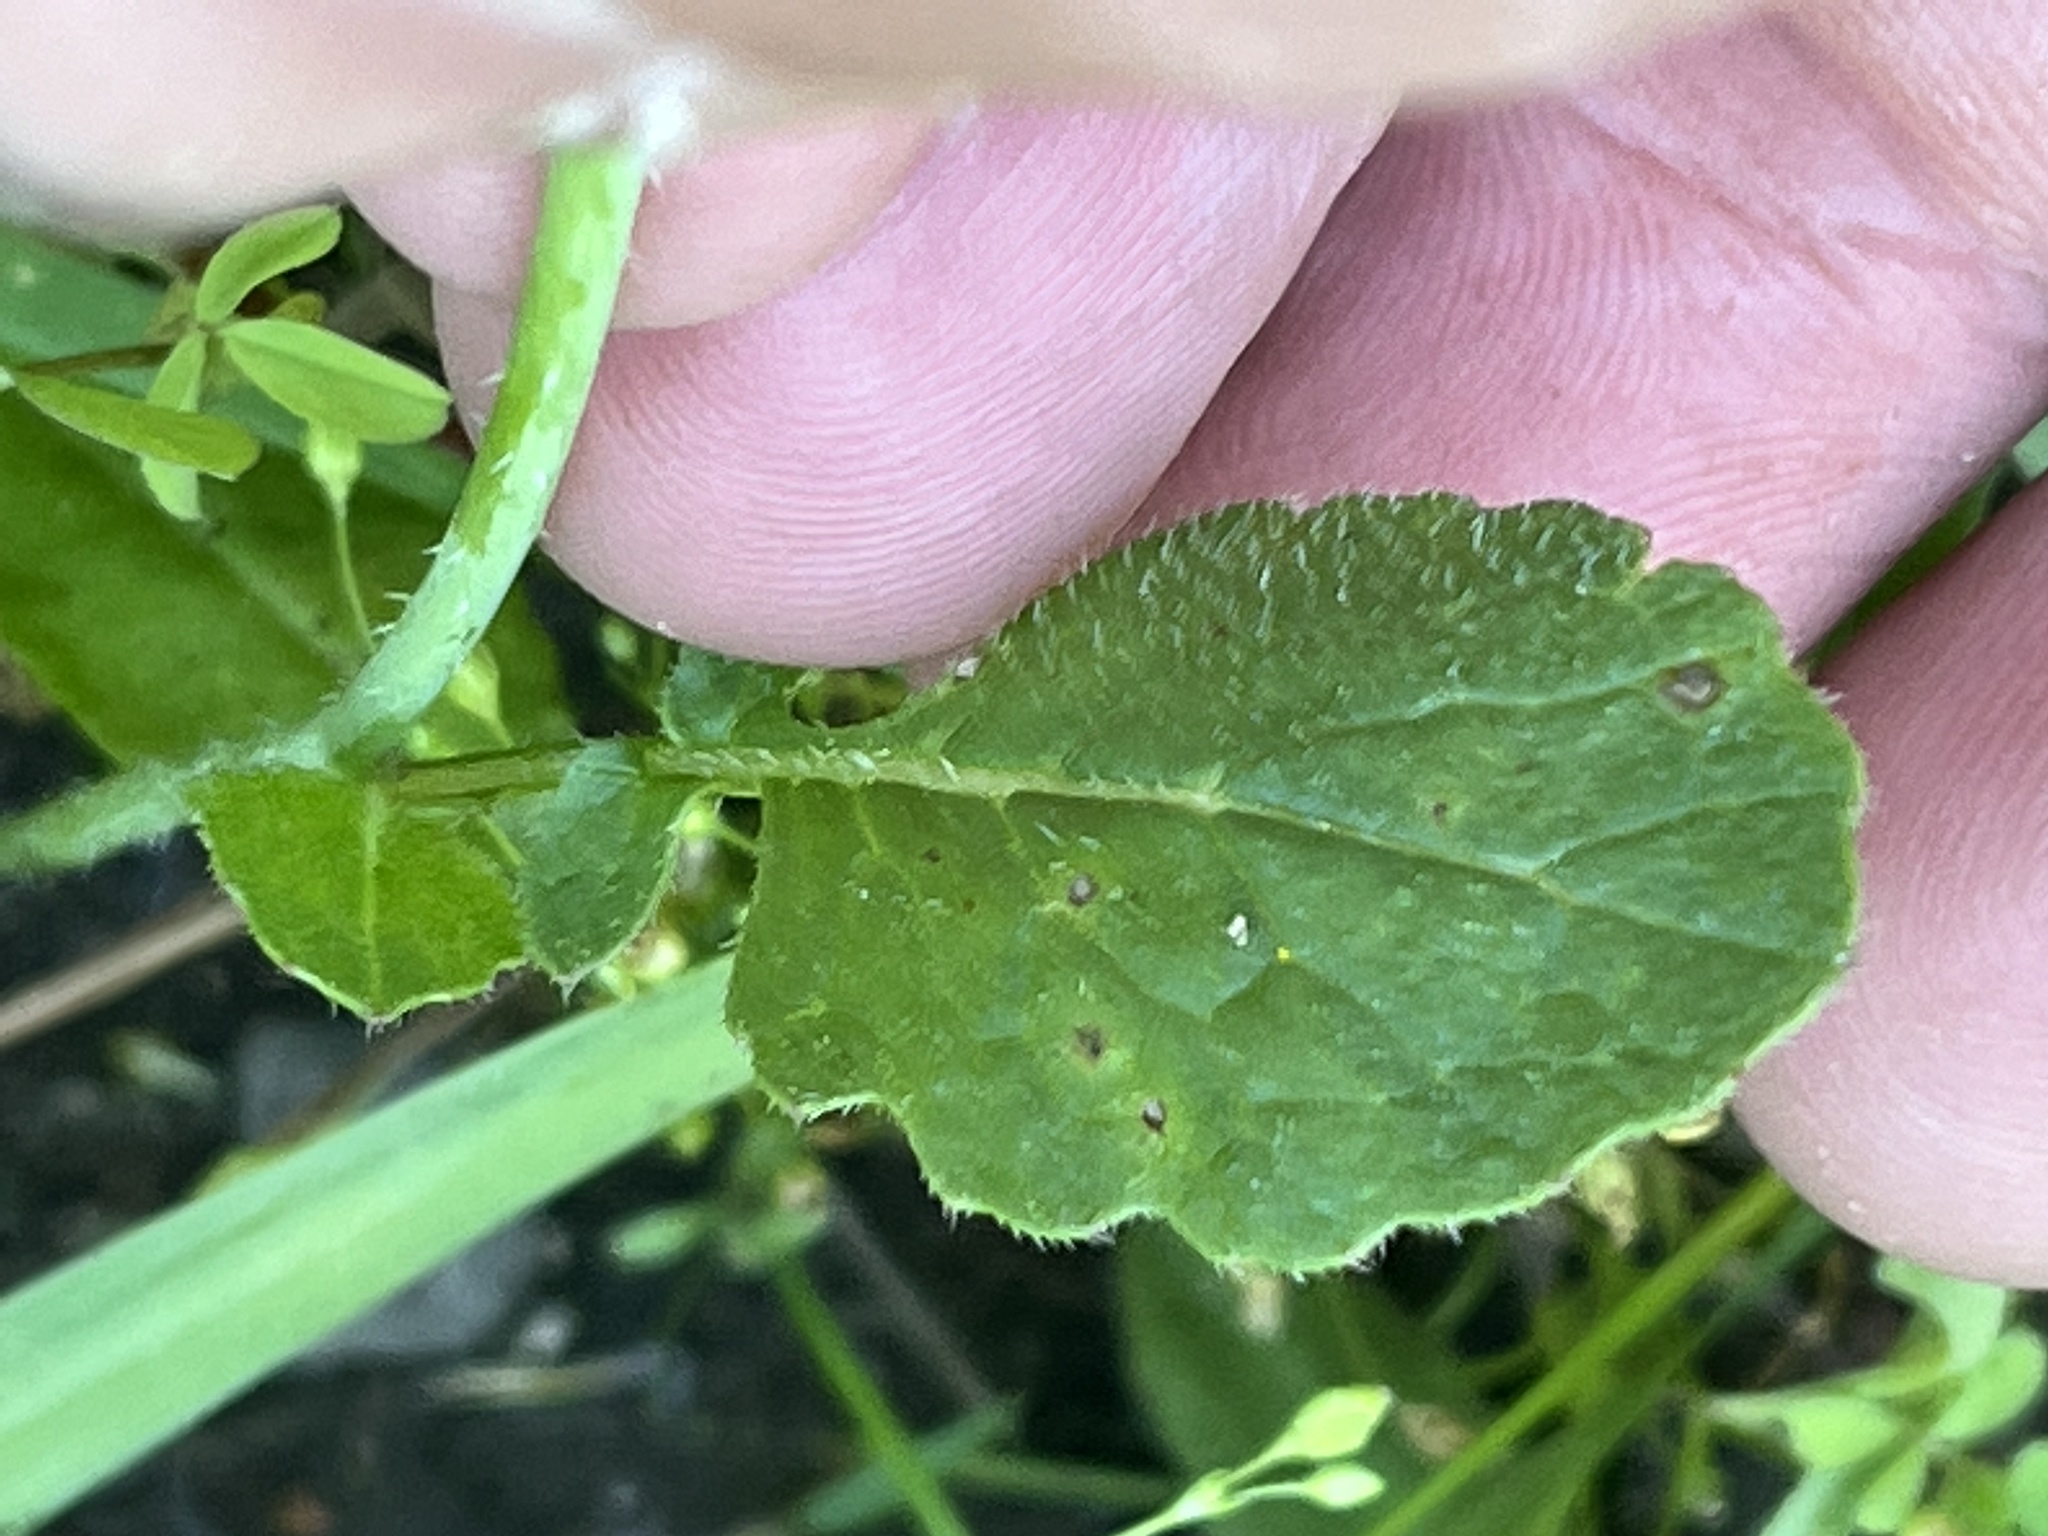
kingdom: Plantae
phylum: Tracheophyta
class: Magnoliopsida
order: Brassicales
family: Brassicaceae
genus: Raphanus
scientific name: Raphanus raphanistrum
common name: Wild radish
